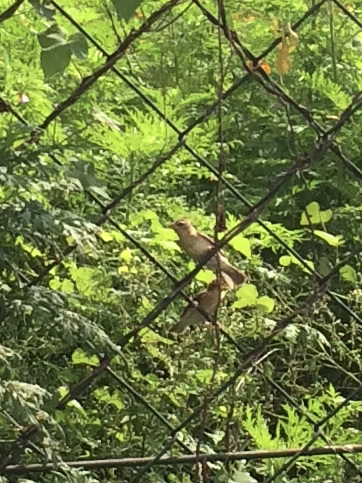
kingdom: Animalia
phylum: Chordata
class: Aves
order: Passeriformes
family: Ploceidae
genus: Ploceus
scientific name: Ploceus philippinus
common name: Baya weaver
